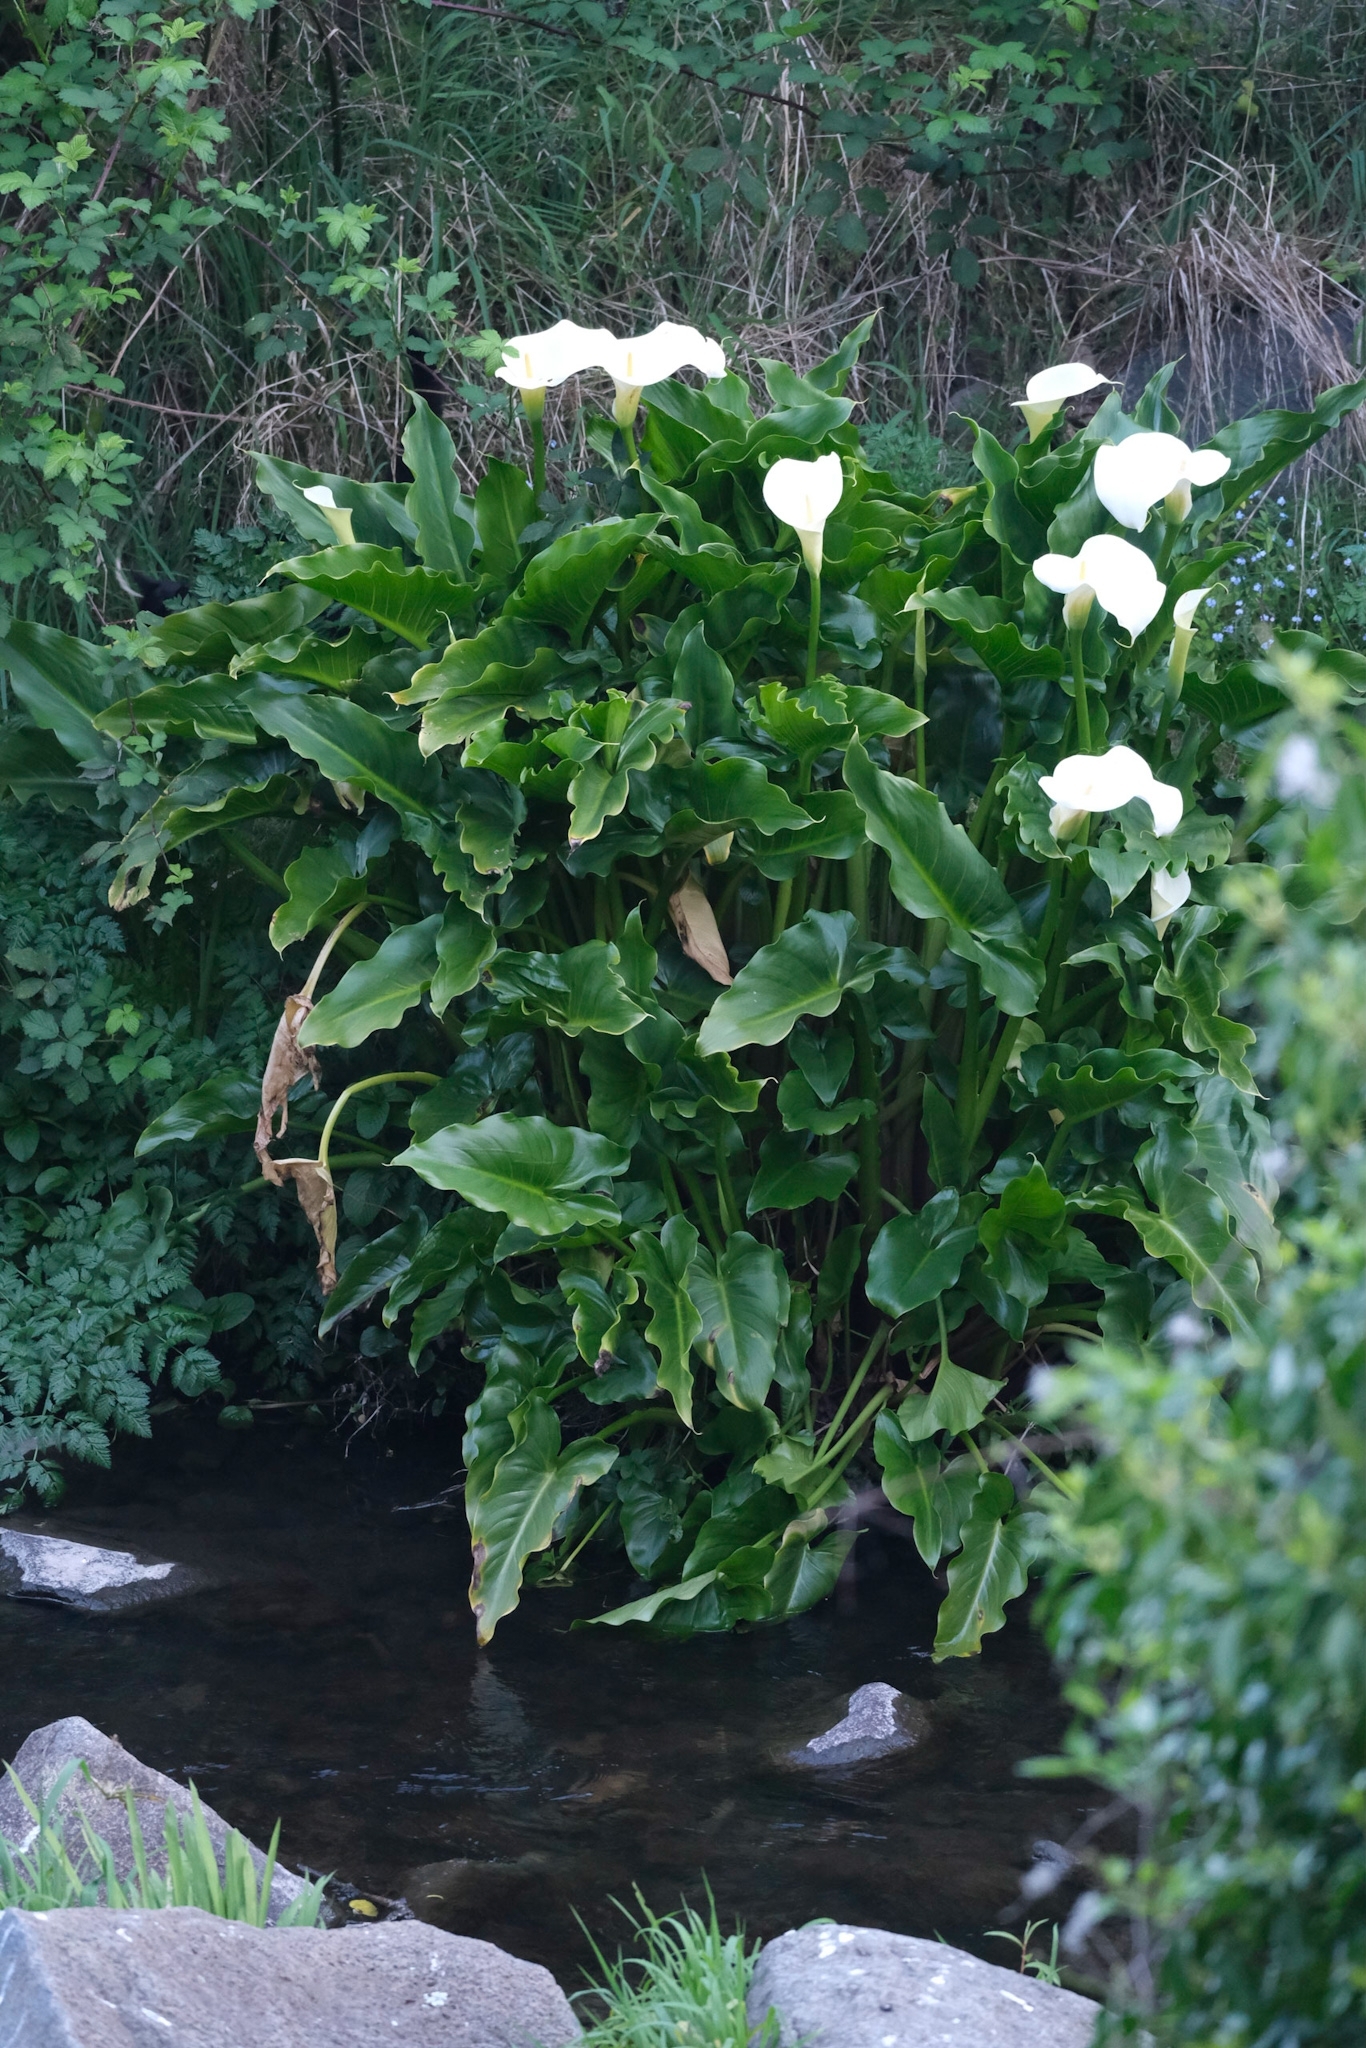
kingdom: Plantae
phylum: Tracheophyta
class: Liliopsida
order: Alismatales
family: Araceae
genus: Zantedeschia
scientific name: Zantedeschia aethiopica
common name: Altar-lily
